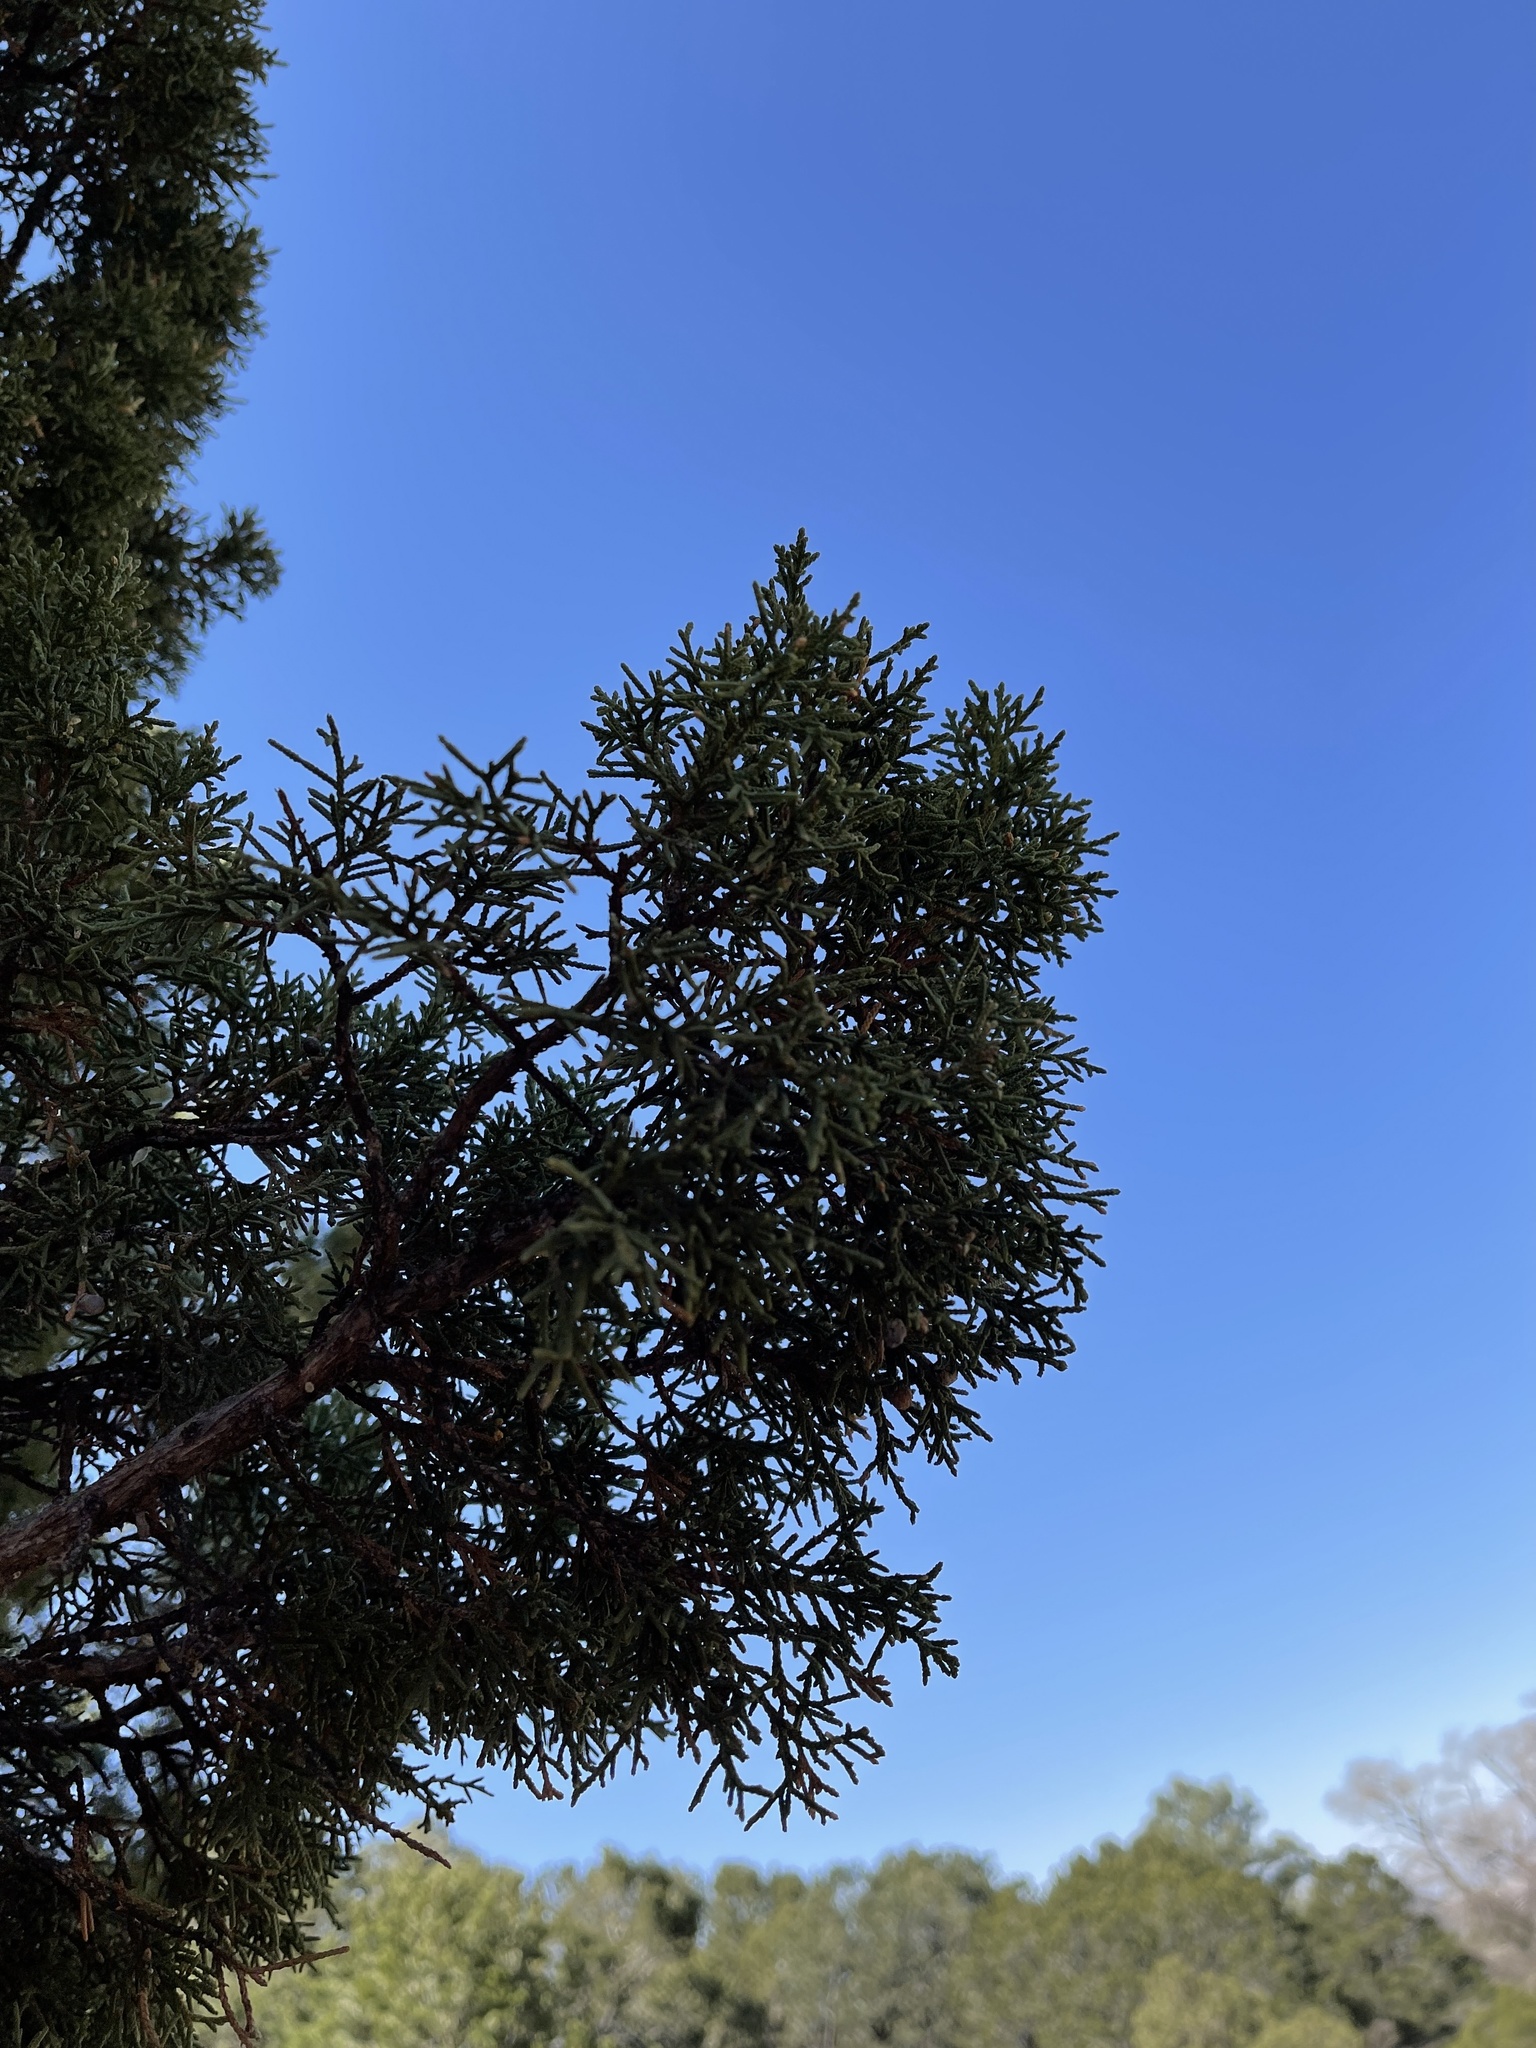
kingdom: Plantae
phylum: Tracheophyta
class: Pinopsida
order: Pinales
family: Cupressaceae
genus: Juniperus
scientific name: Juniperus monosperma
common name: One-seed juniper
